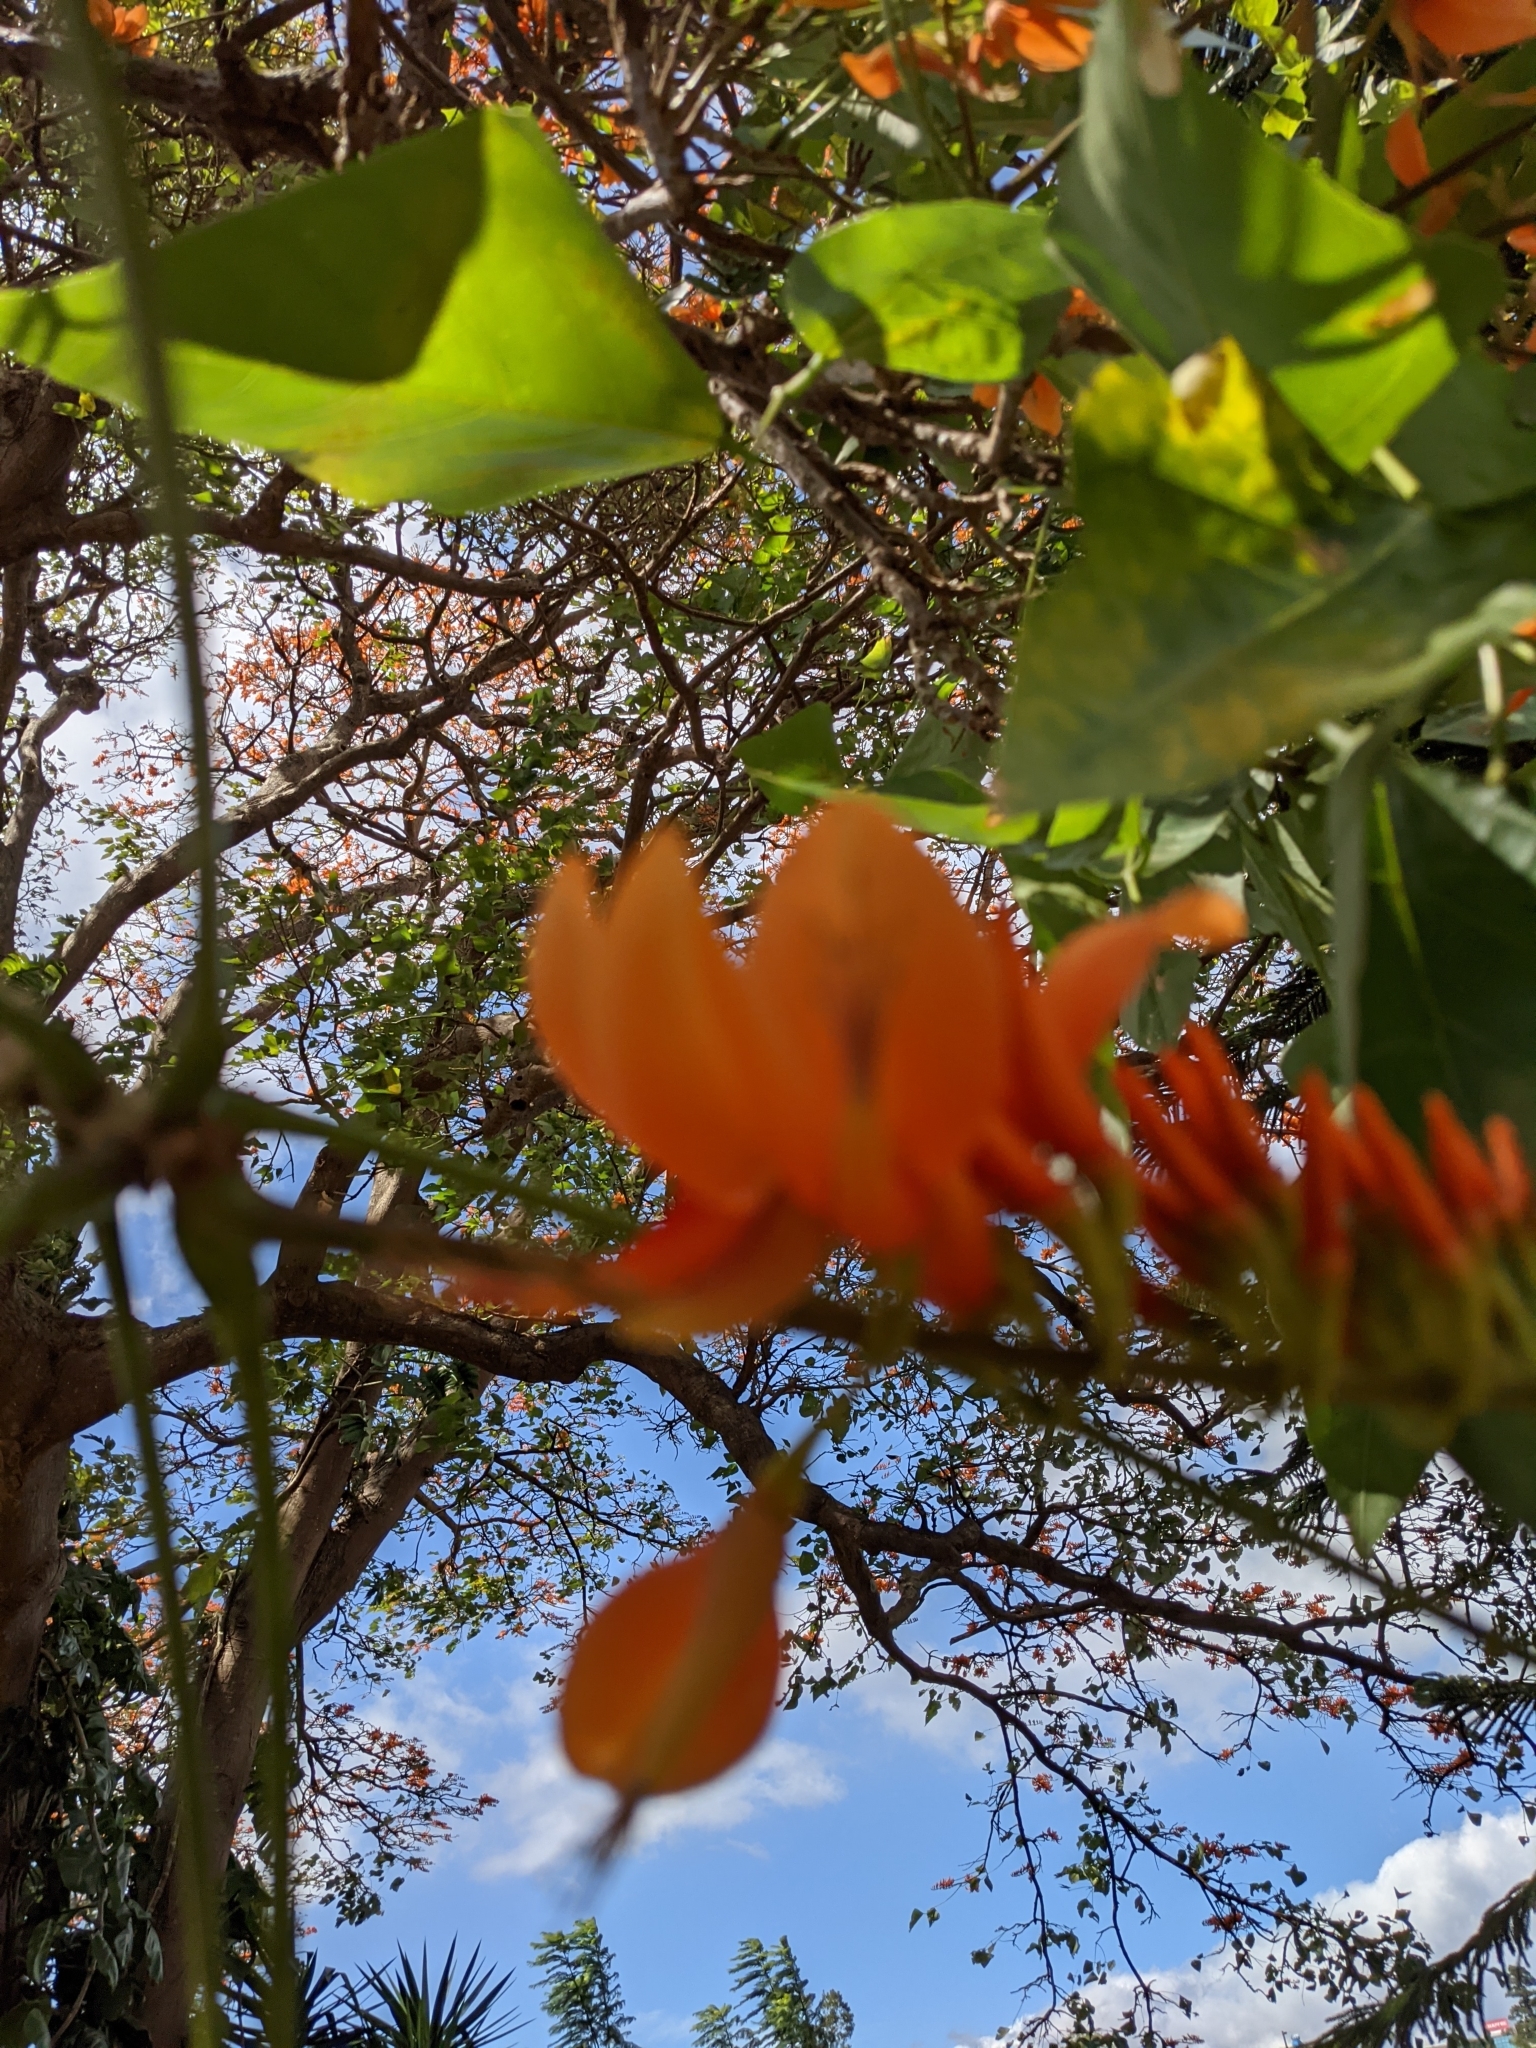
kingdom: Plantae
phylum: Tracheophyta
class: Magnoliopsida
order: Fabales
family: Fabaceae
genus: Erythrina
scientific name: Erythrina poeppigiana
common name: Coral tree
